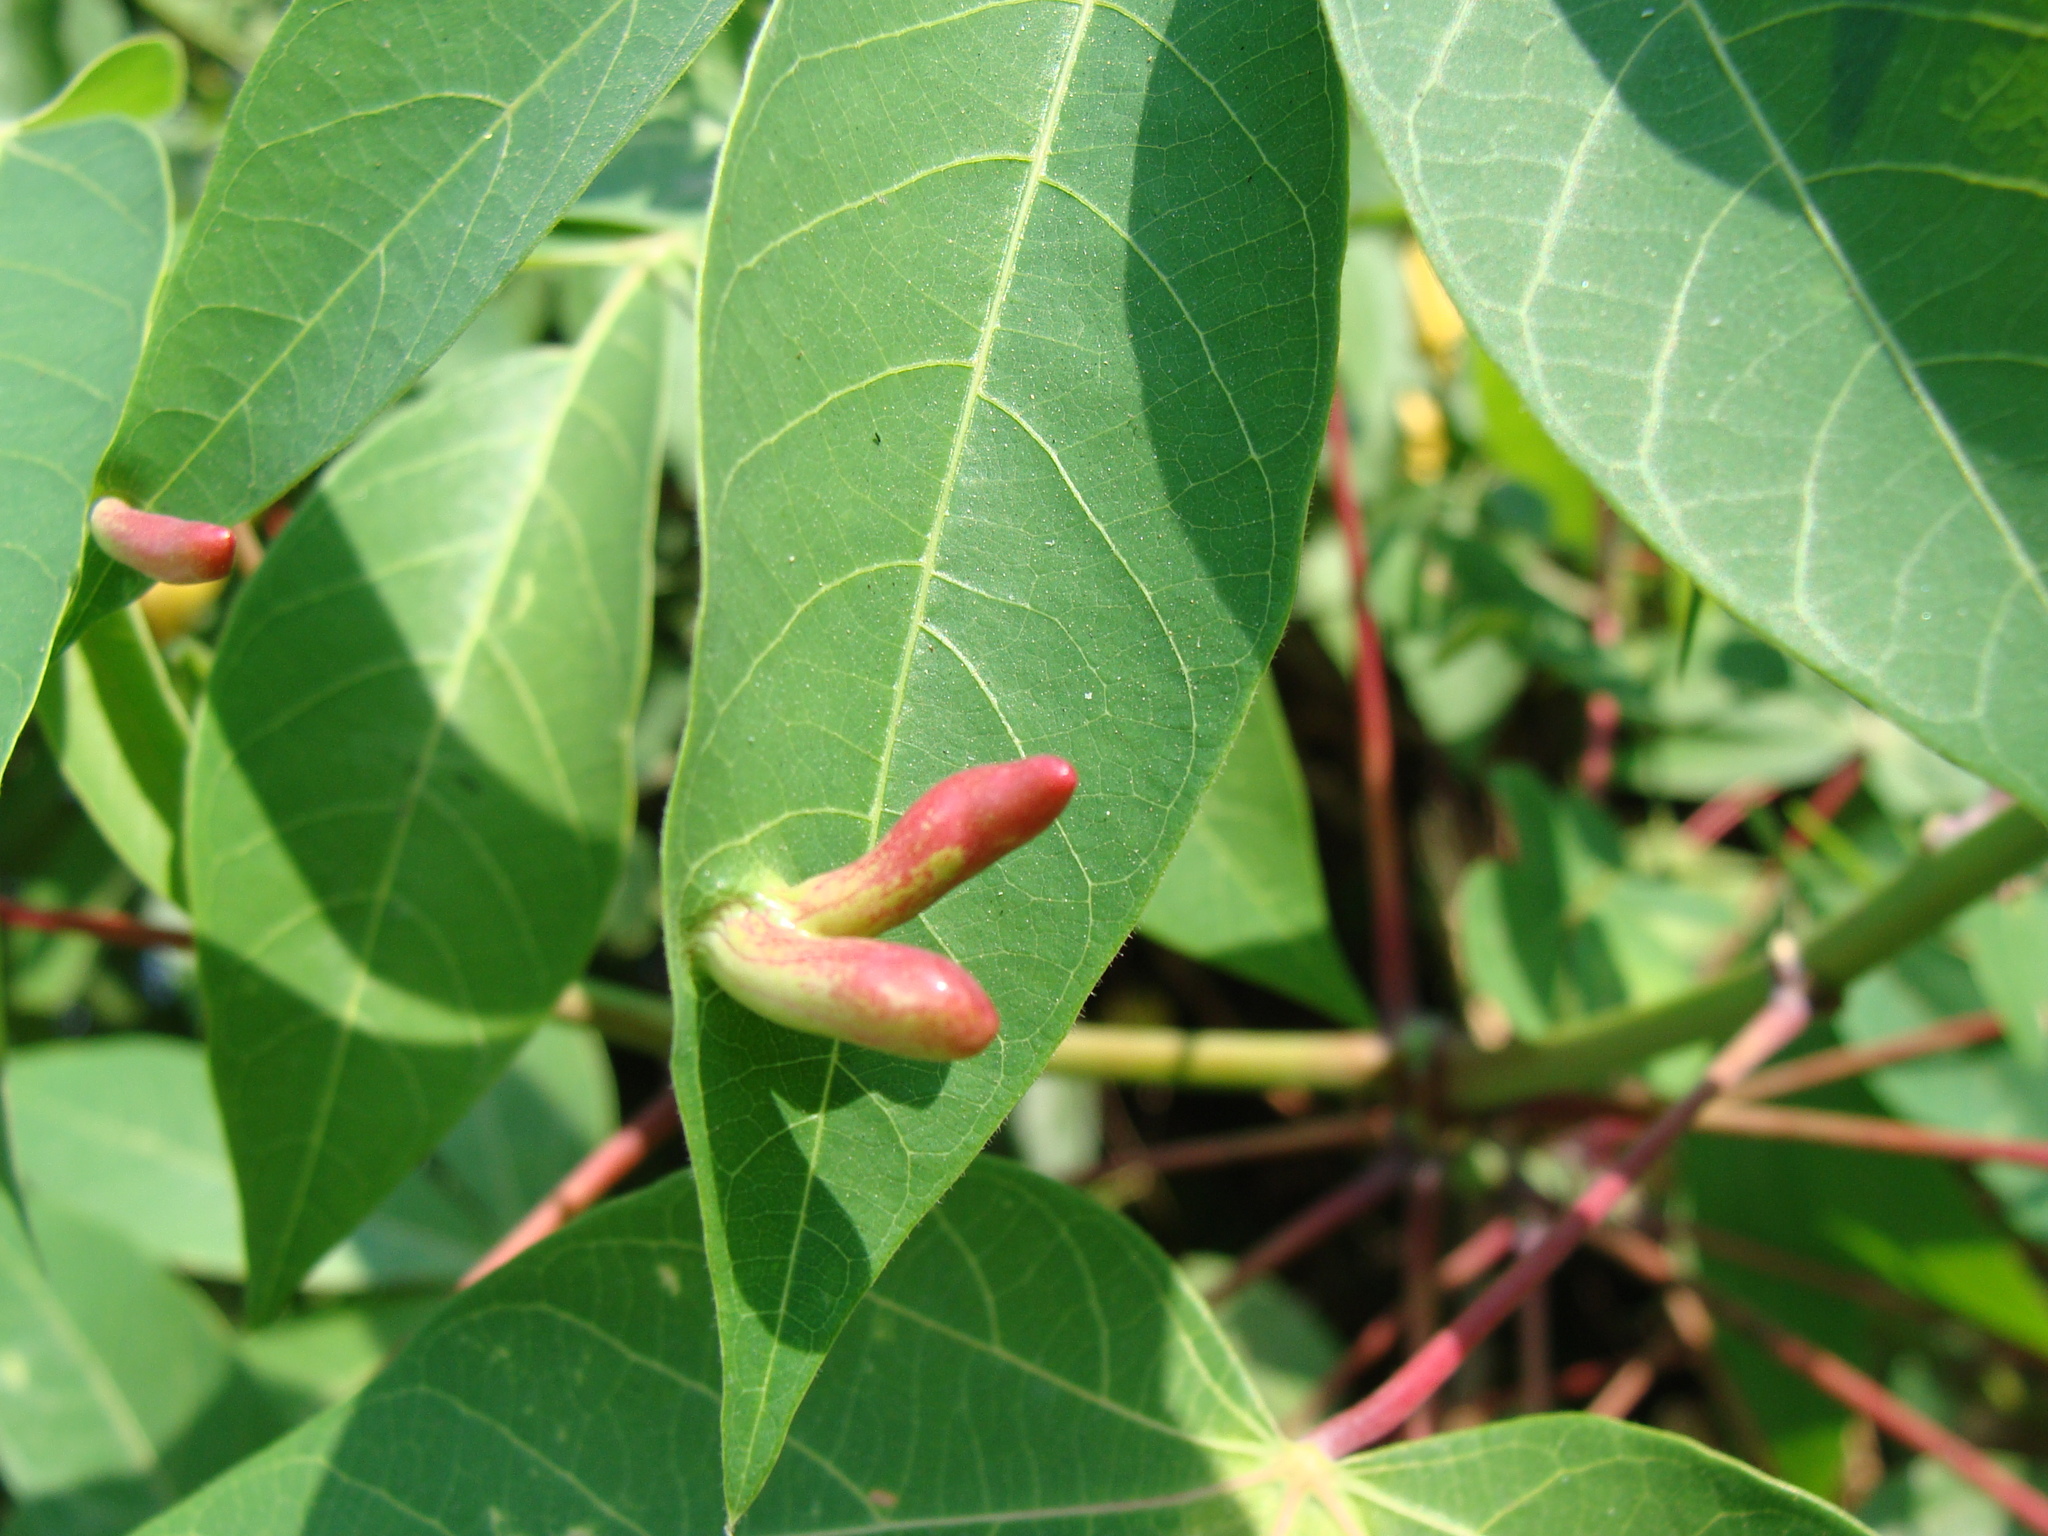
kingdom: Plantae
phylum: Tracheophyta
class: Magnoliopsida
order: Malpighiales
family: Euphorbiaceae
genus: Manihot
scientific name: Manihot esculenta
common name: Cassava
